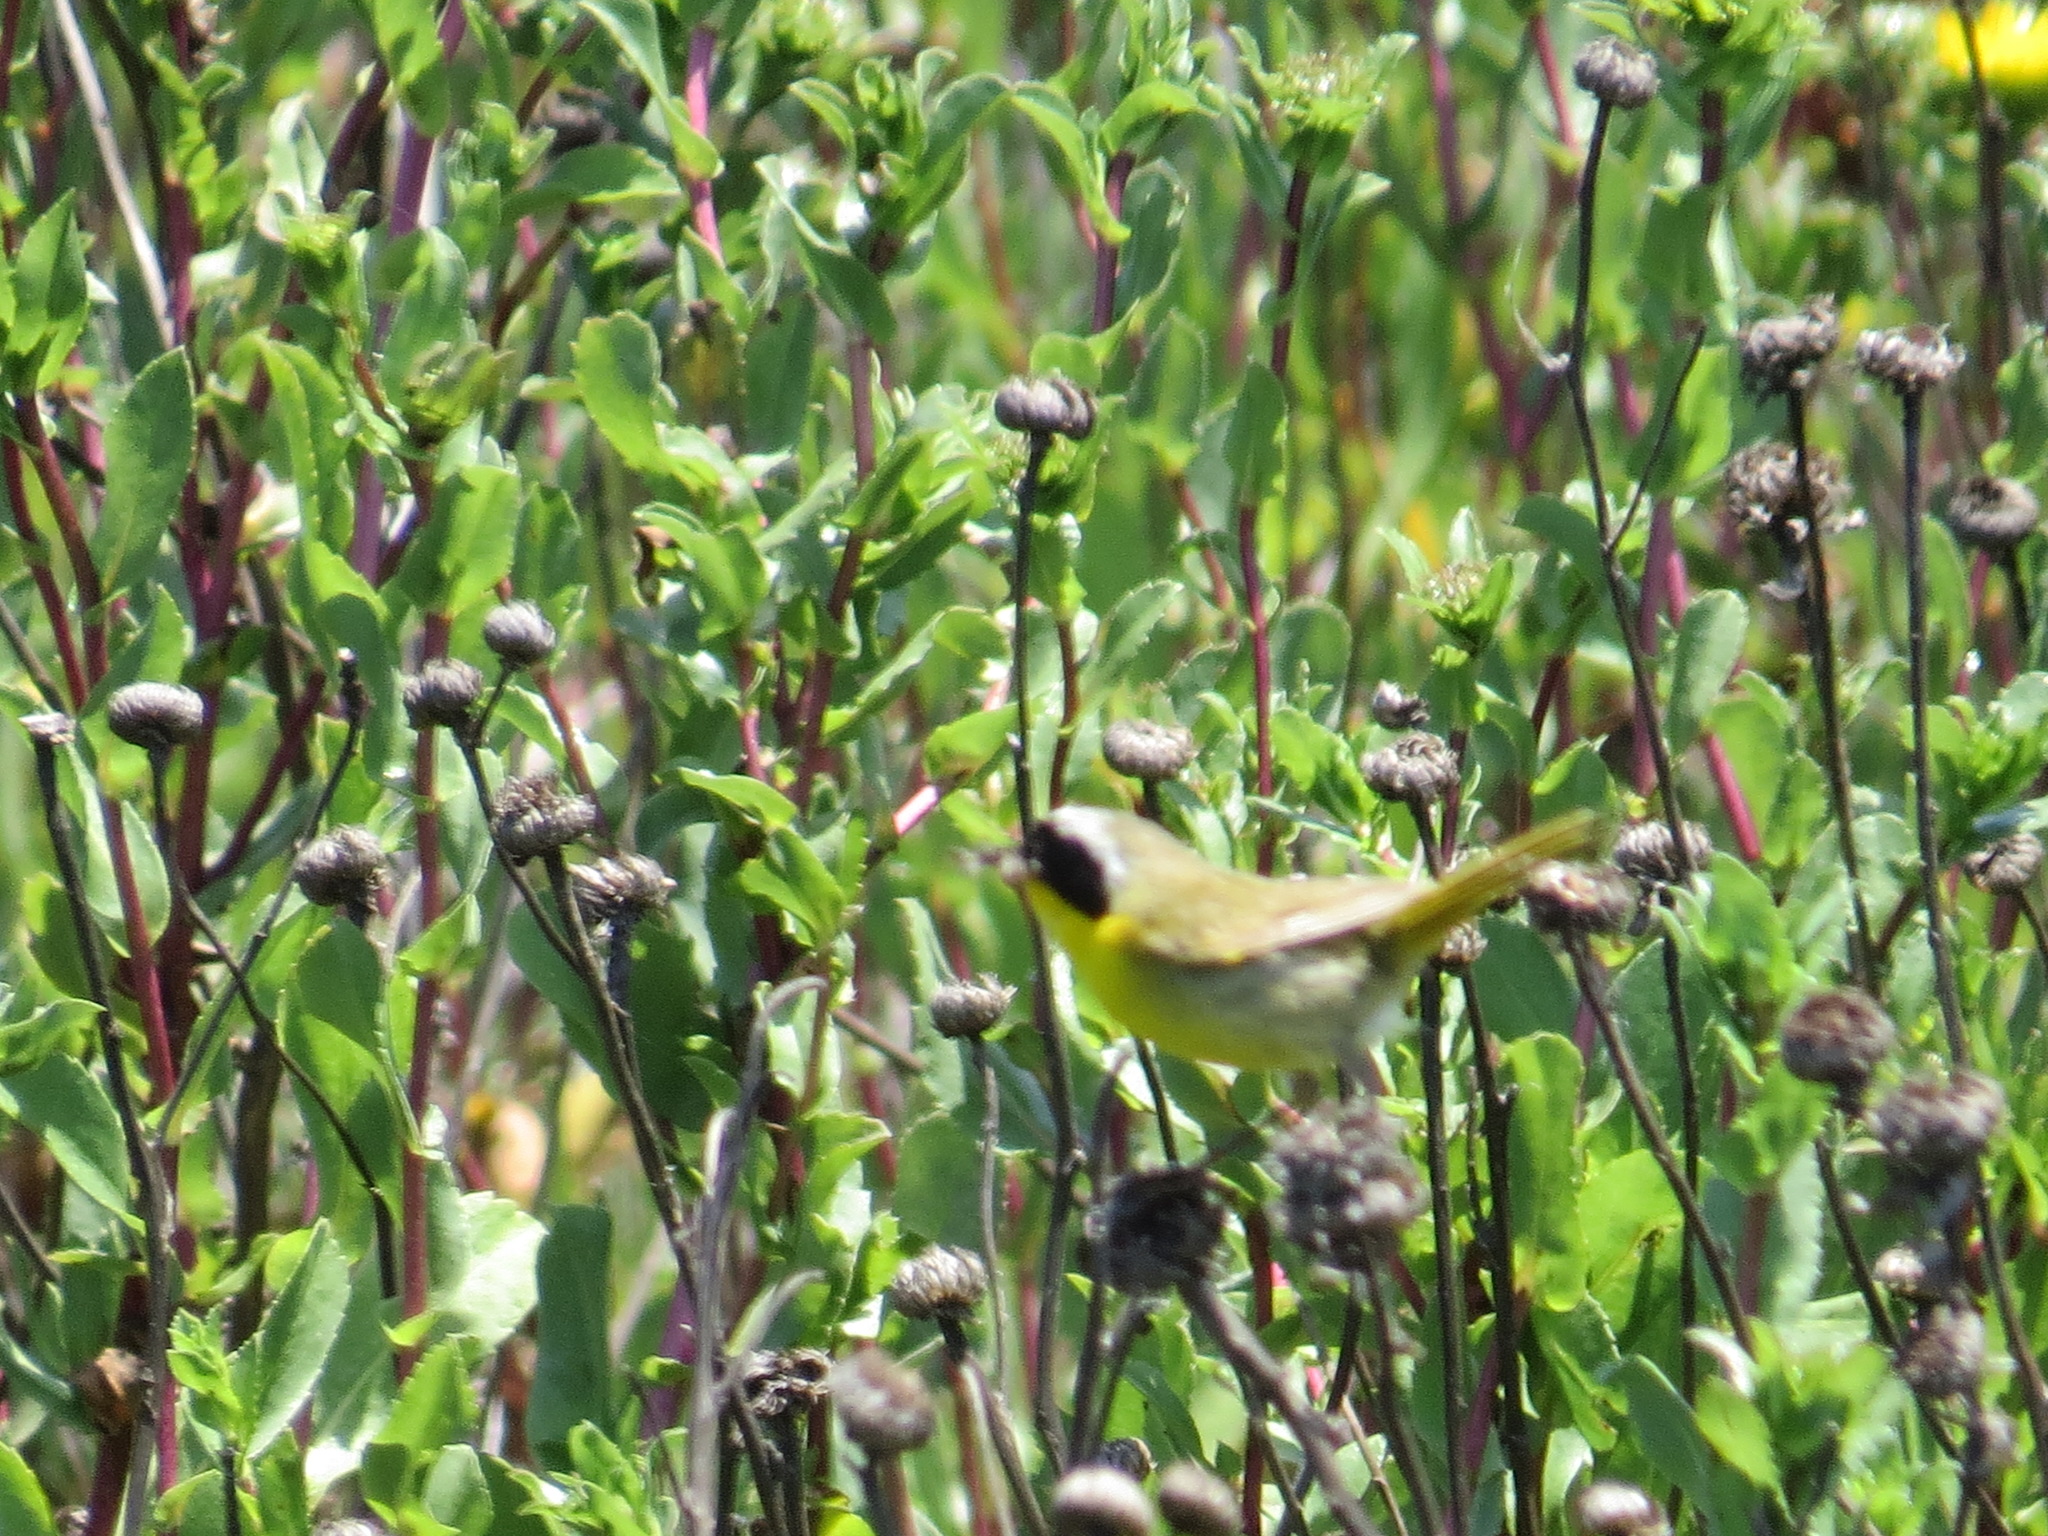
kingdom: Animalia
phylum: Chordata
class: Aves
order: Passeriformes
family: Parulidae
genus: Geothlypis
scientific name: Geothlypis trichas
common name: Common yellowthroat
